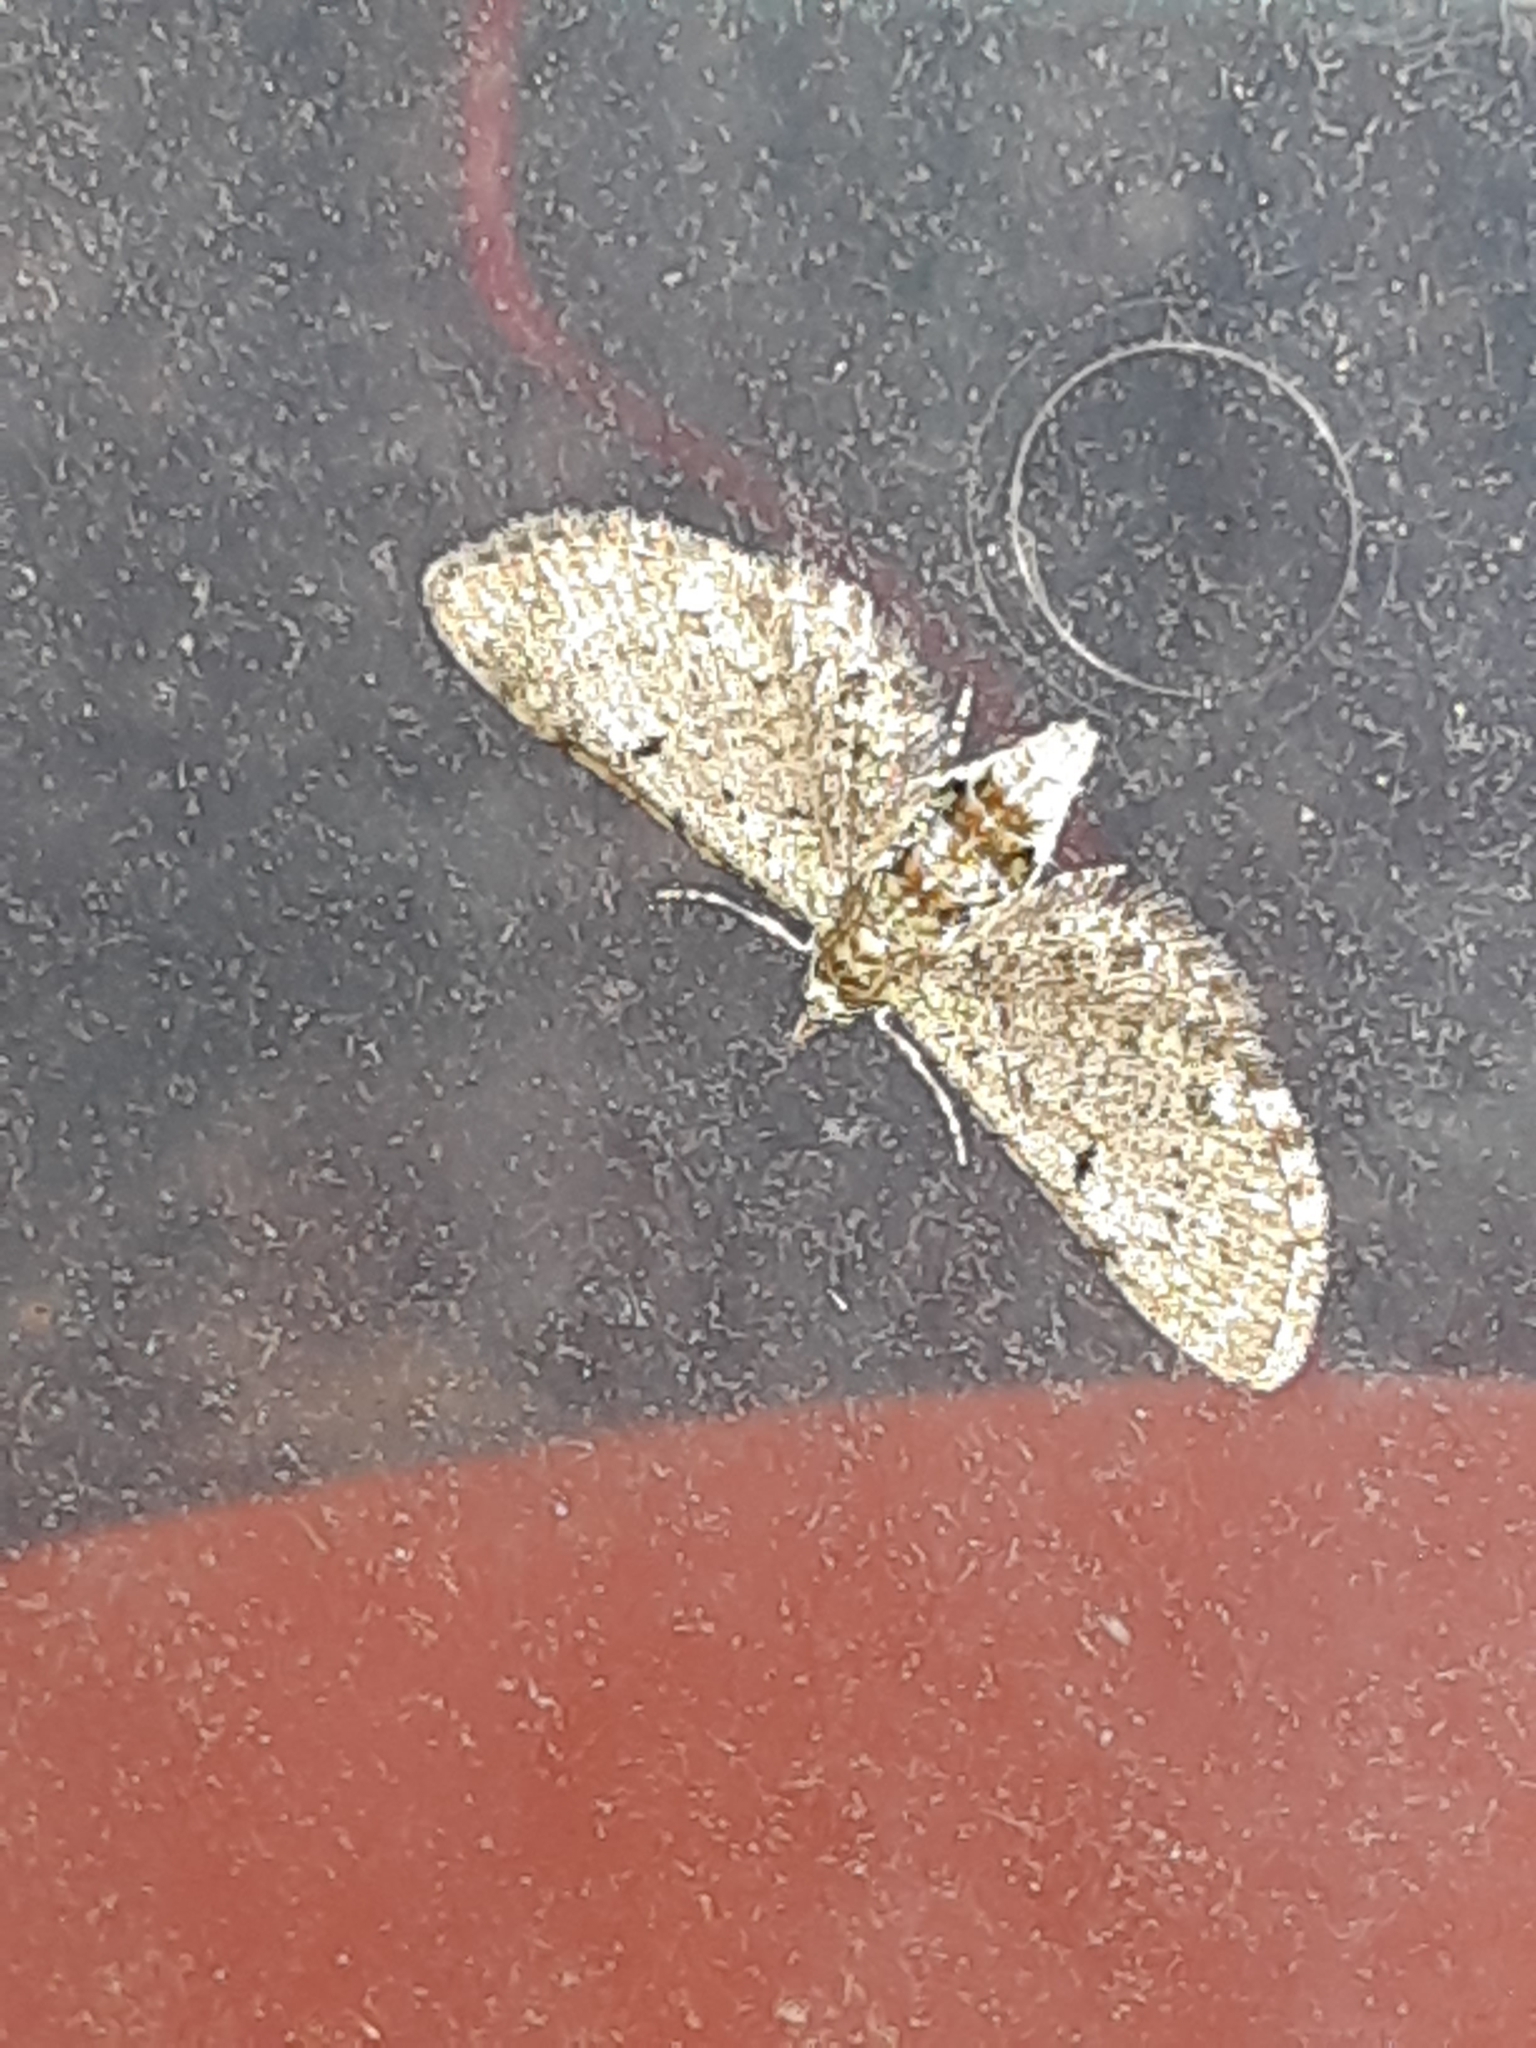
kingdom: Animalia
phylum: Arthropoda
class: Insecta
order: Lepidoptera
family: Geometridae
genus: Eupithecia
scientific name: Eupithecia miserulata
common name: Common eupithecia
